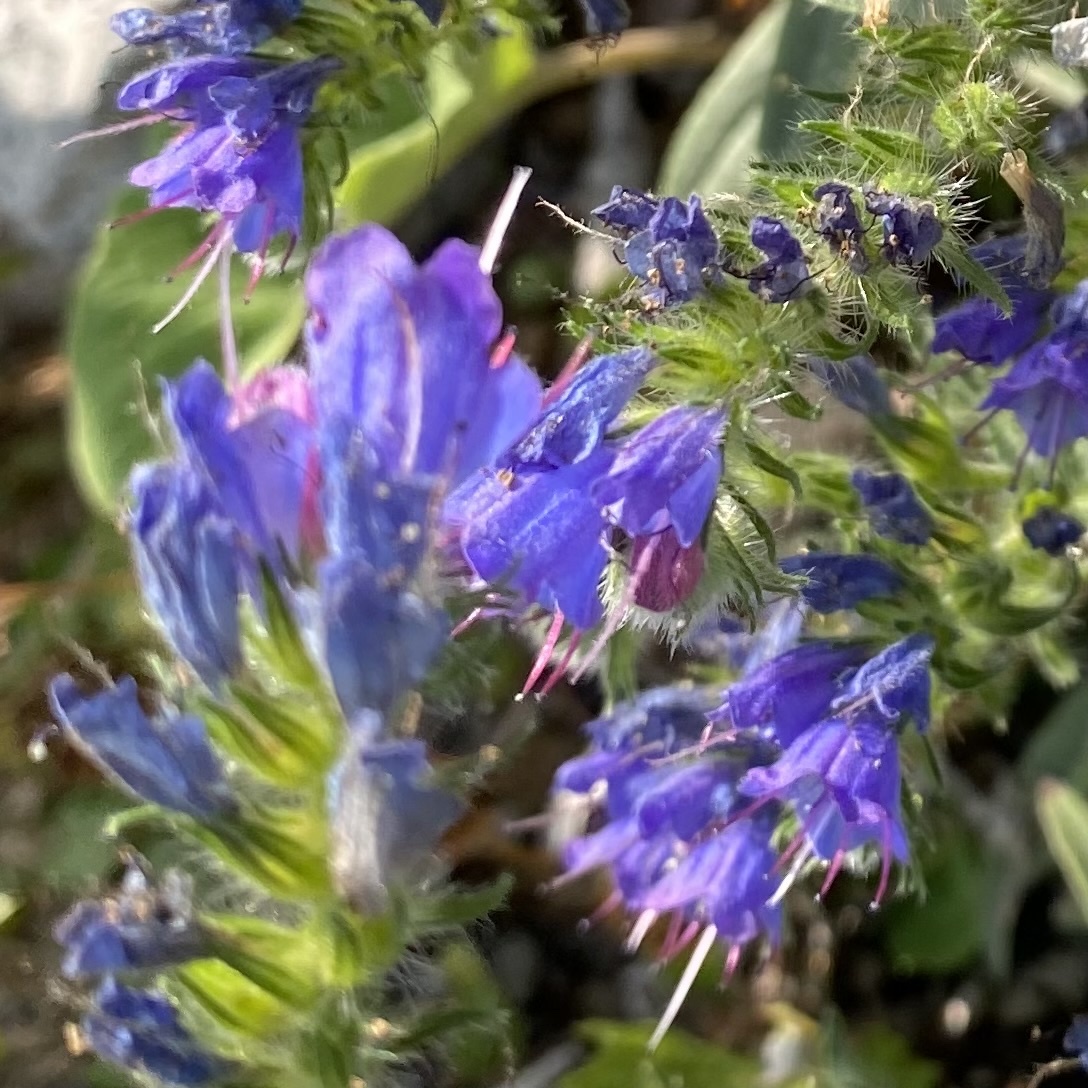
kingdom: Plantae
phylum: Tracheophyta
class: Magnoliopsida
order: Boraginales
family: Boraginaceae
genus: Echium
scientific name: Echium vulgare
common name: Common viper's bugloss
